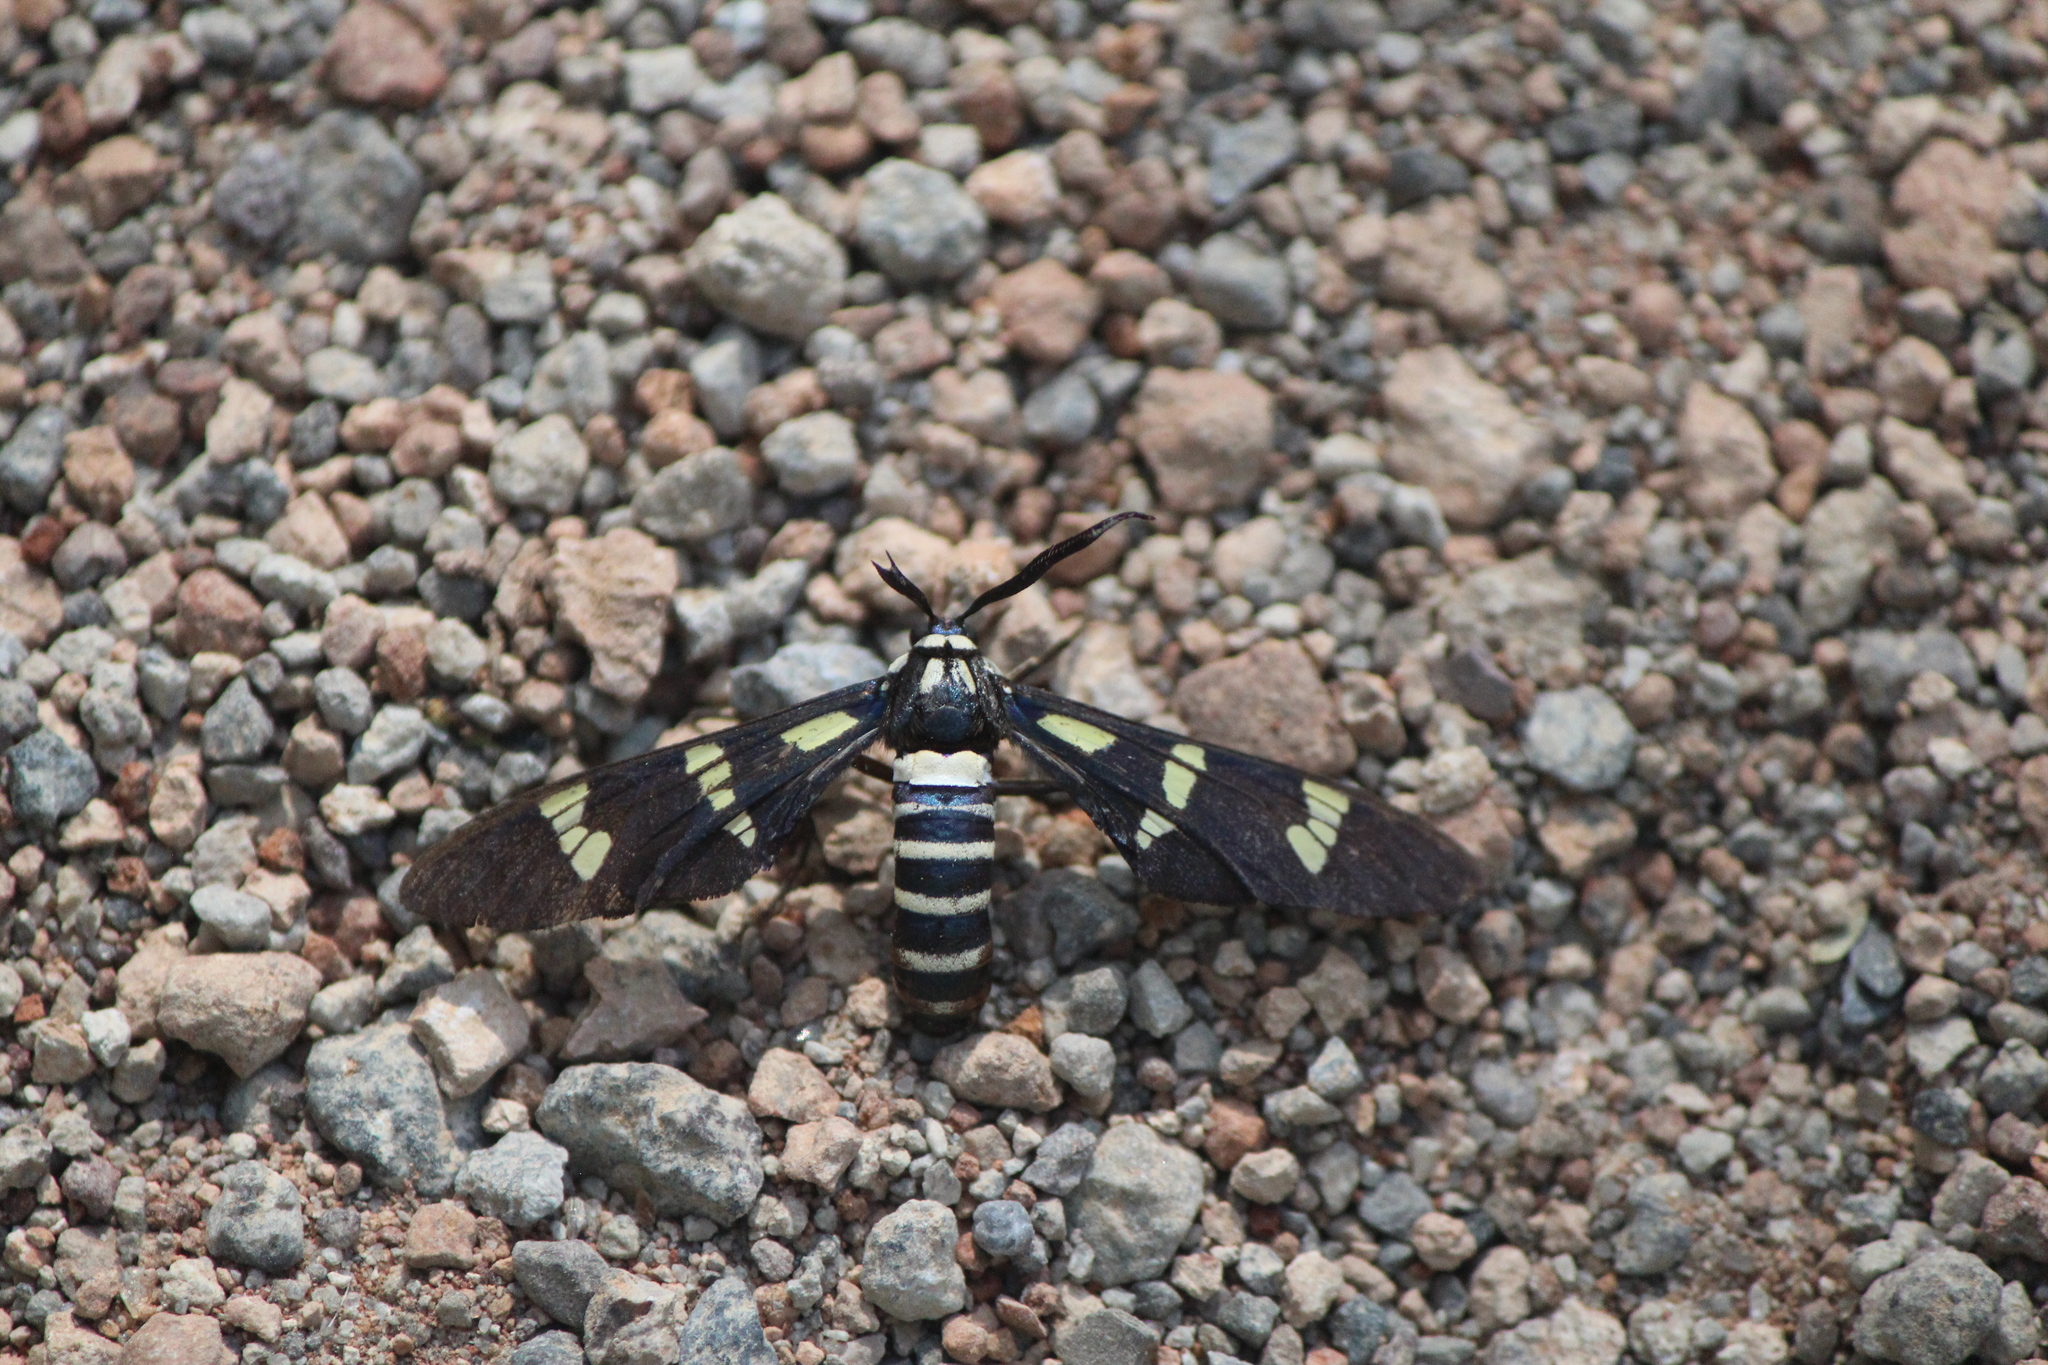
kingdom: Animalia
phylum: Arthropoda
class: Insecta
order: Lepidoptera
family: Erebidae
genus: Syntomeida
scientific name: Syntomeida melanthus
